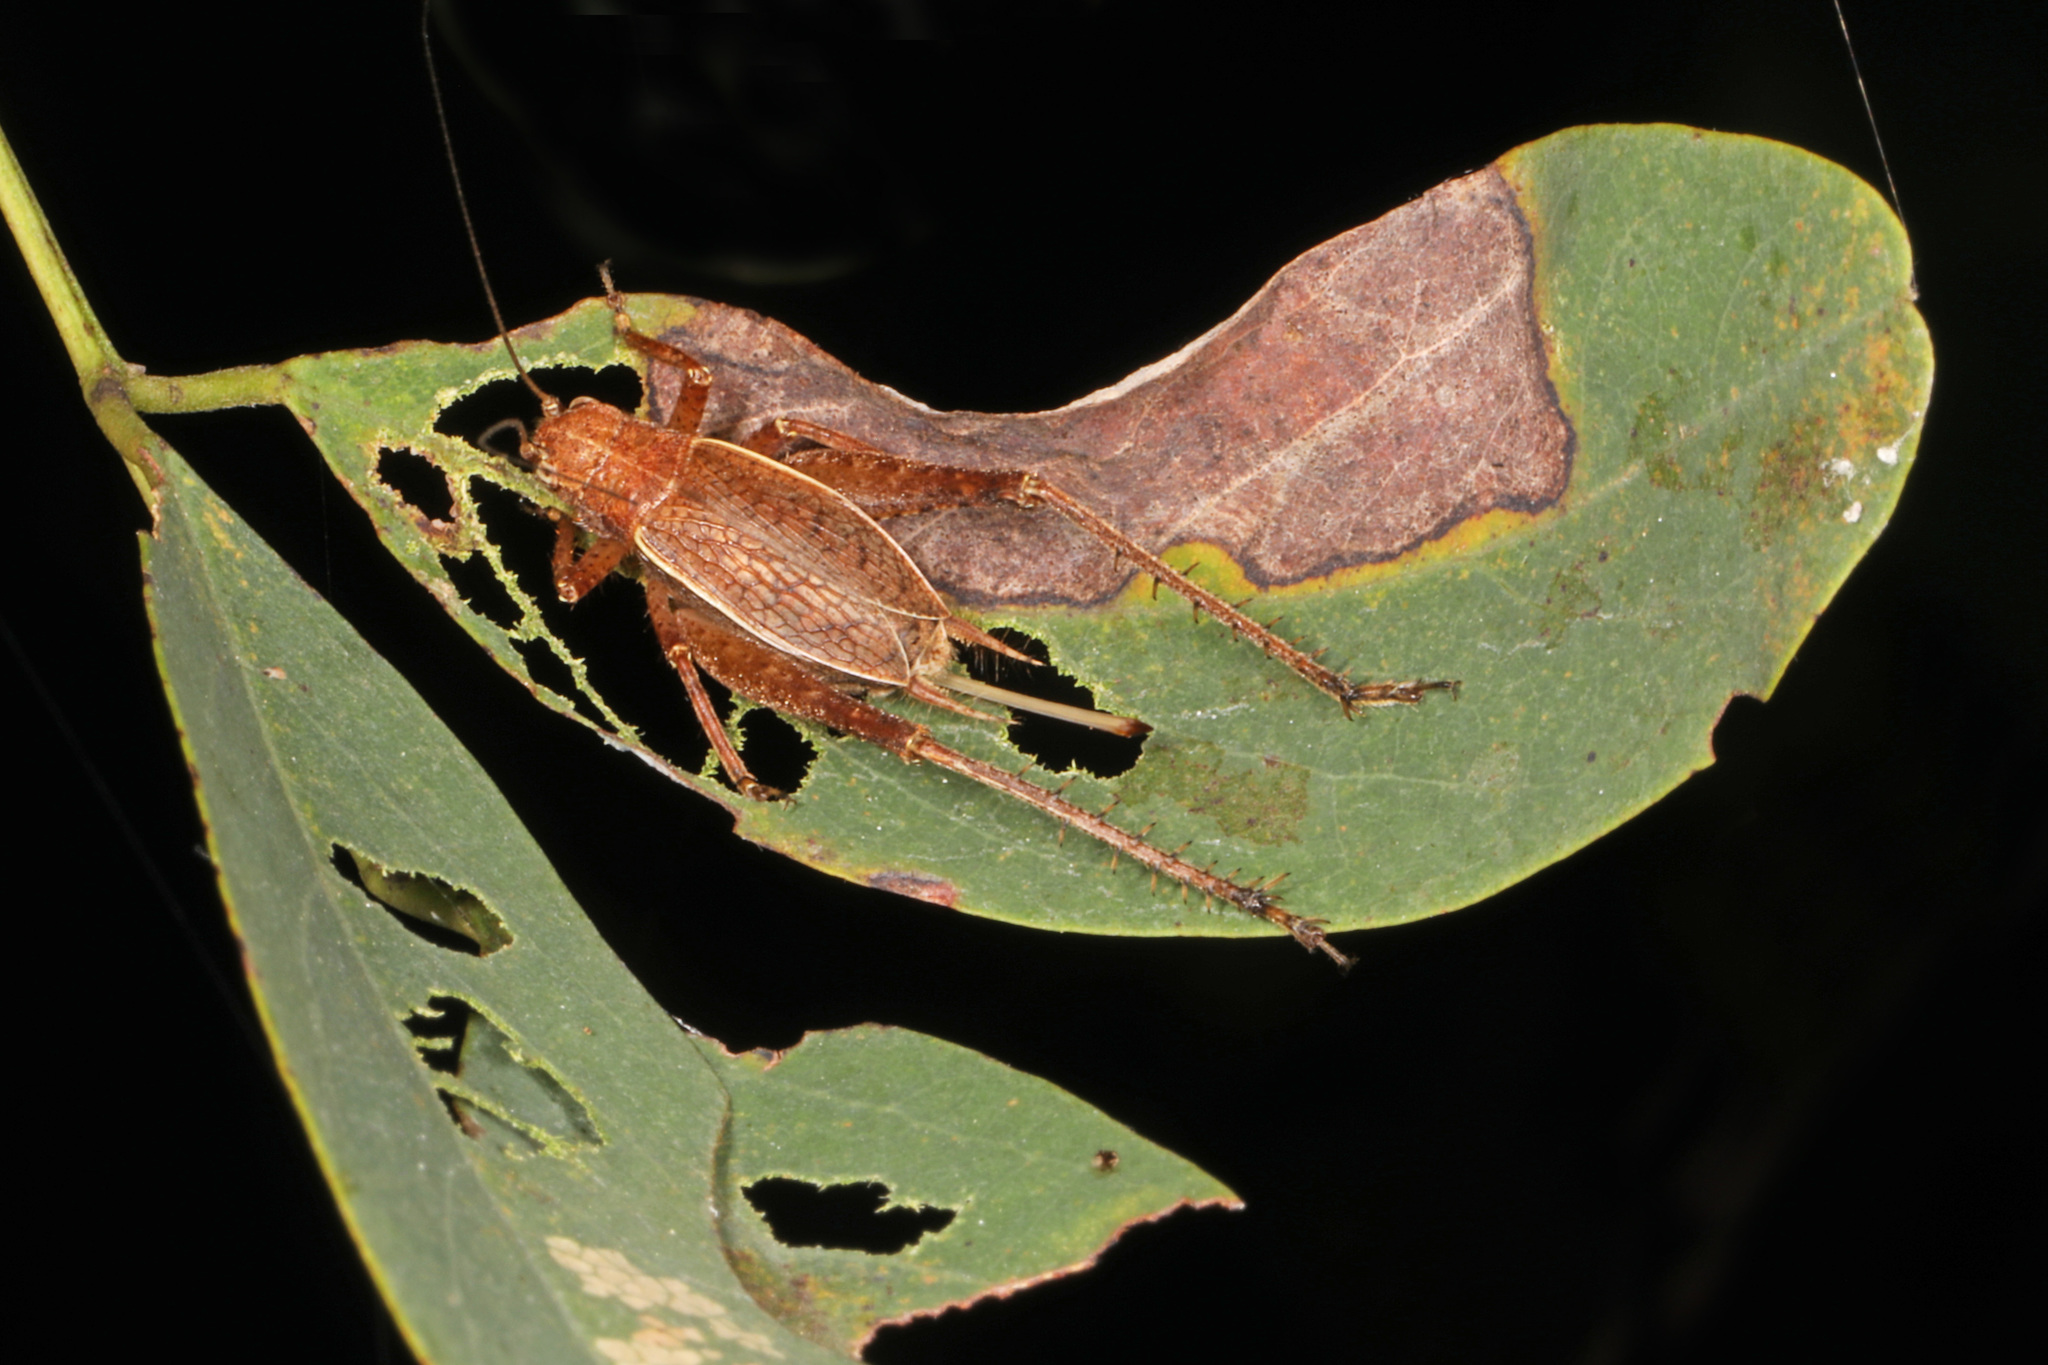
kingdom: Animalia
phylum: Arthropoda
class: Insecta
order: Orthoptera
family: Gryllidae
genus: Hapithus
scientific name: Hapithus agitator
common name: Restless bush cricket
